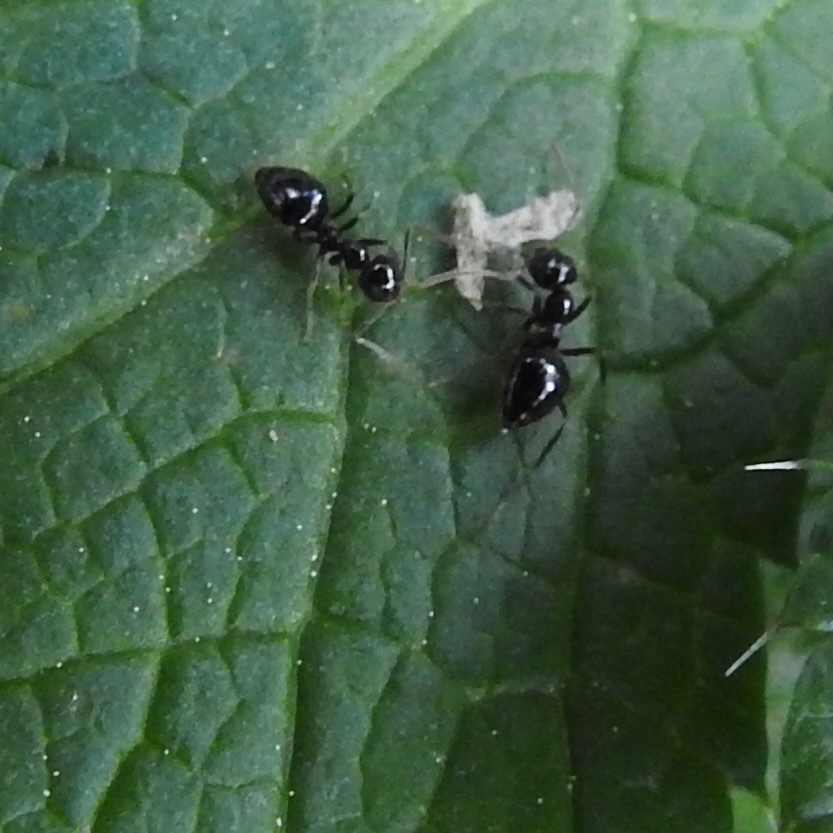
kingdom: Animalia
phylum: Arthropoda
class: Insecta
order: Hymenoptera
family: Formicidae
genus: Prenolepis
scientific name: Prenolepis imparis
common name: Small honey ant
